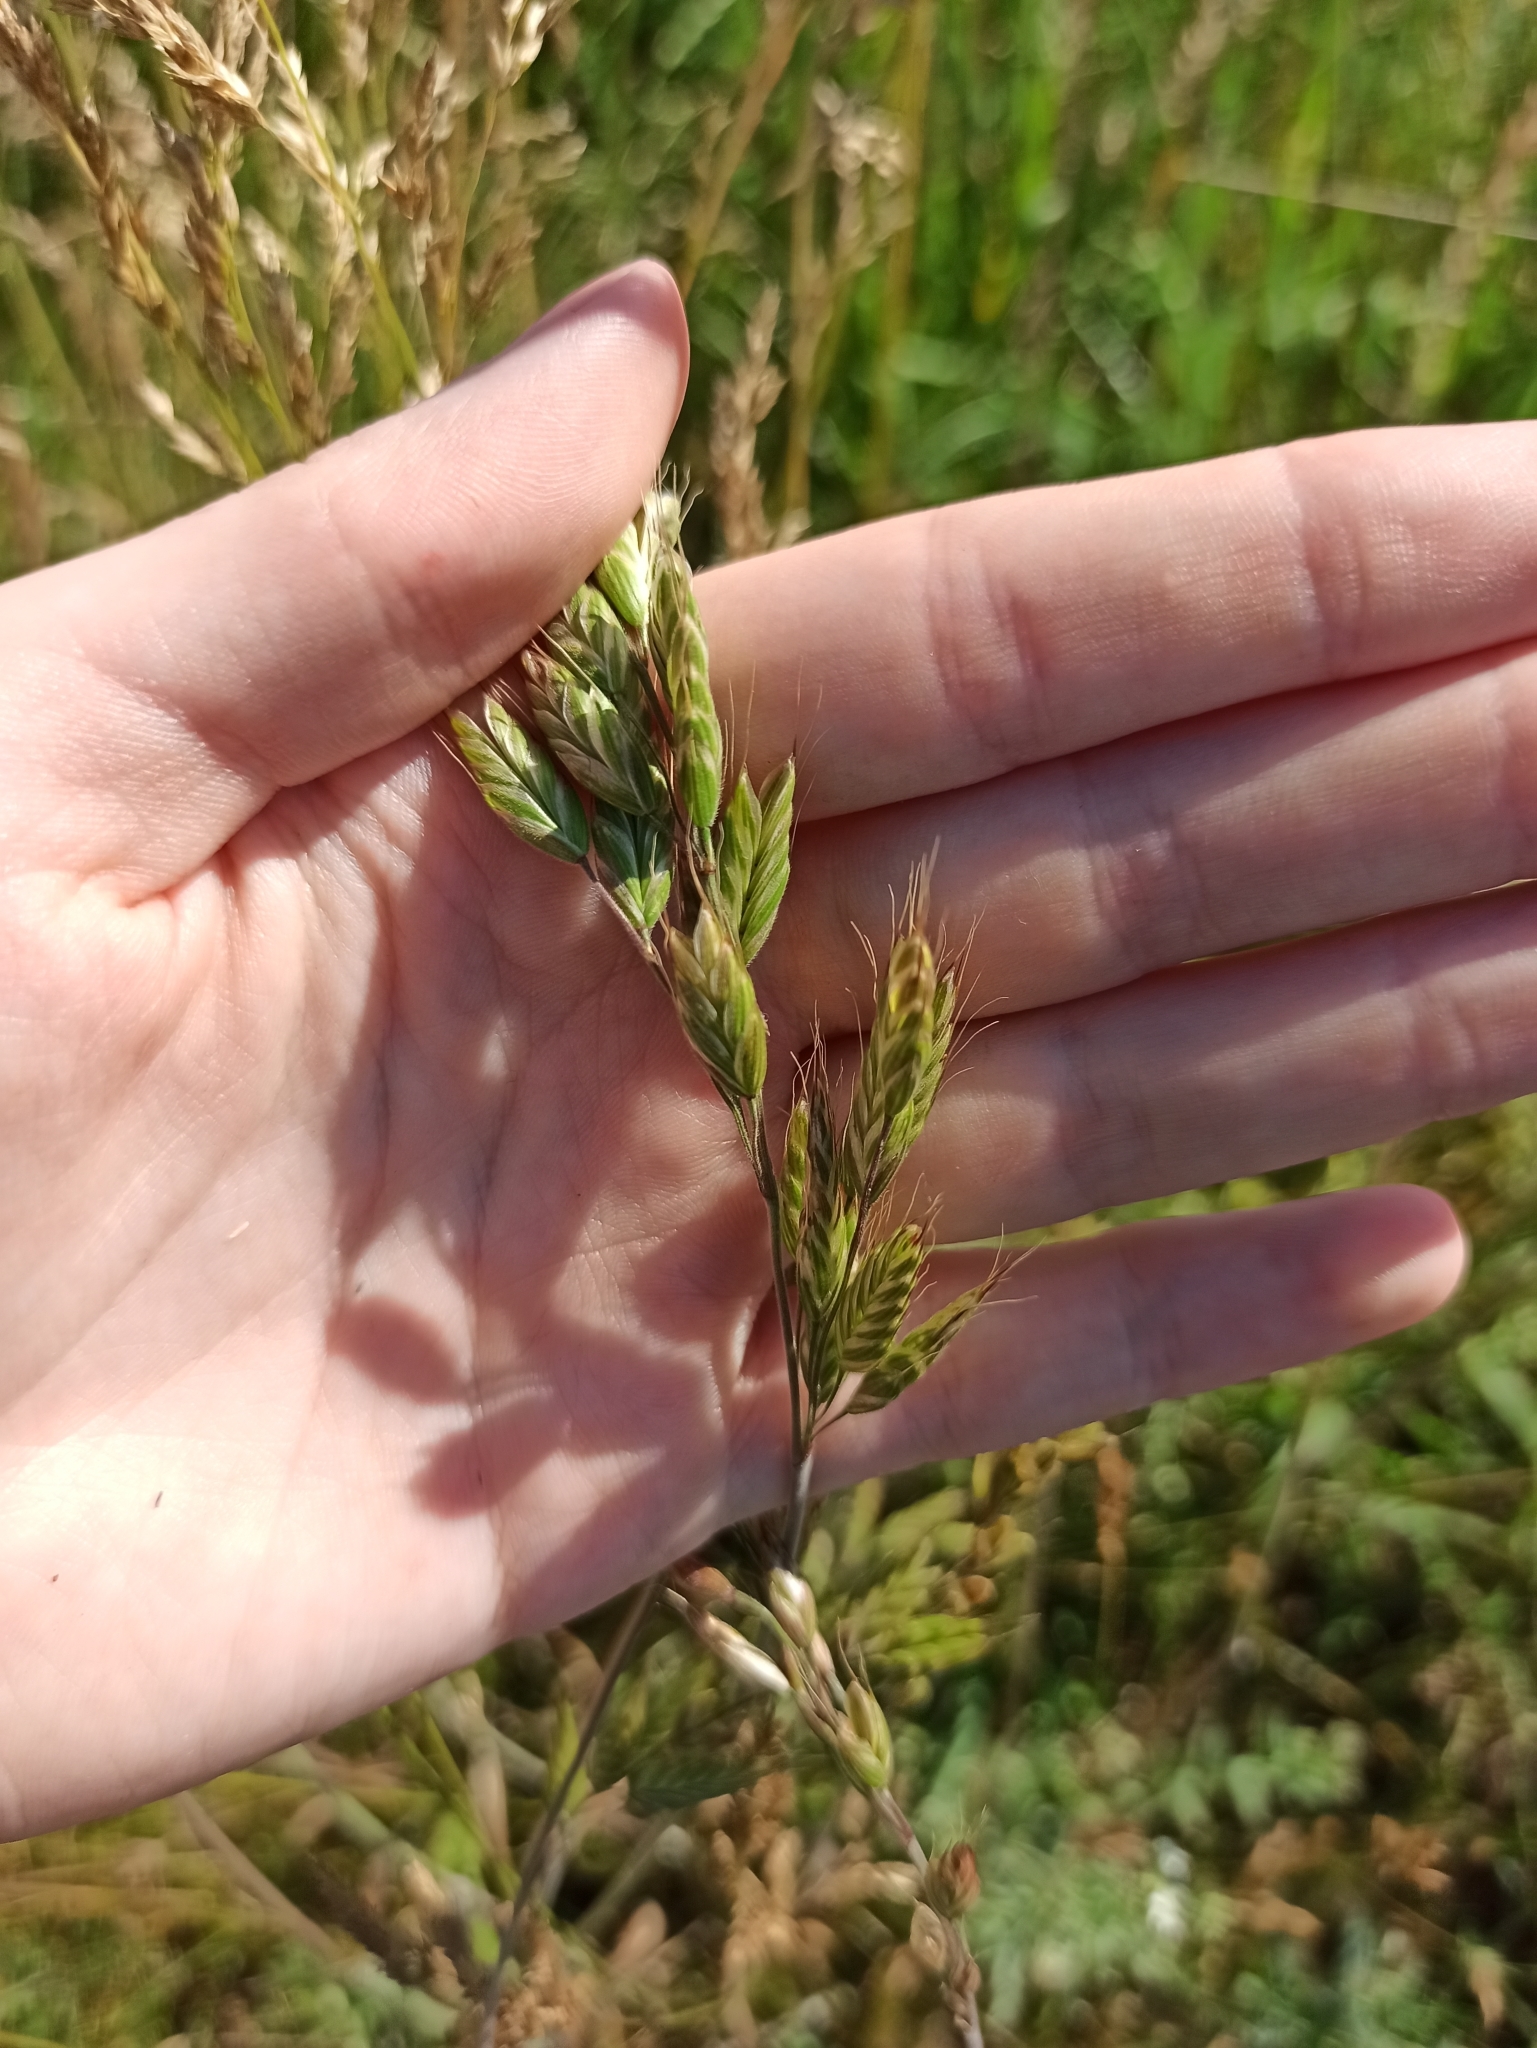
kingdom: Plantae
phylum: Tracheophyta
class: Liliopsida
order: Poales
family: Poaceae
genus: Bromus
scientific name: Bromus hordeaceus
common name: Soft brome
